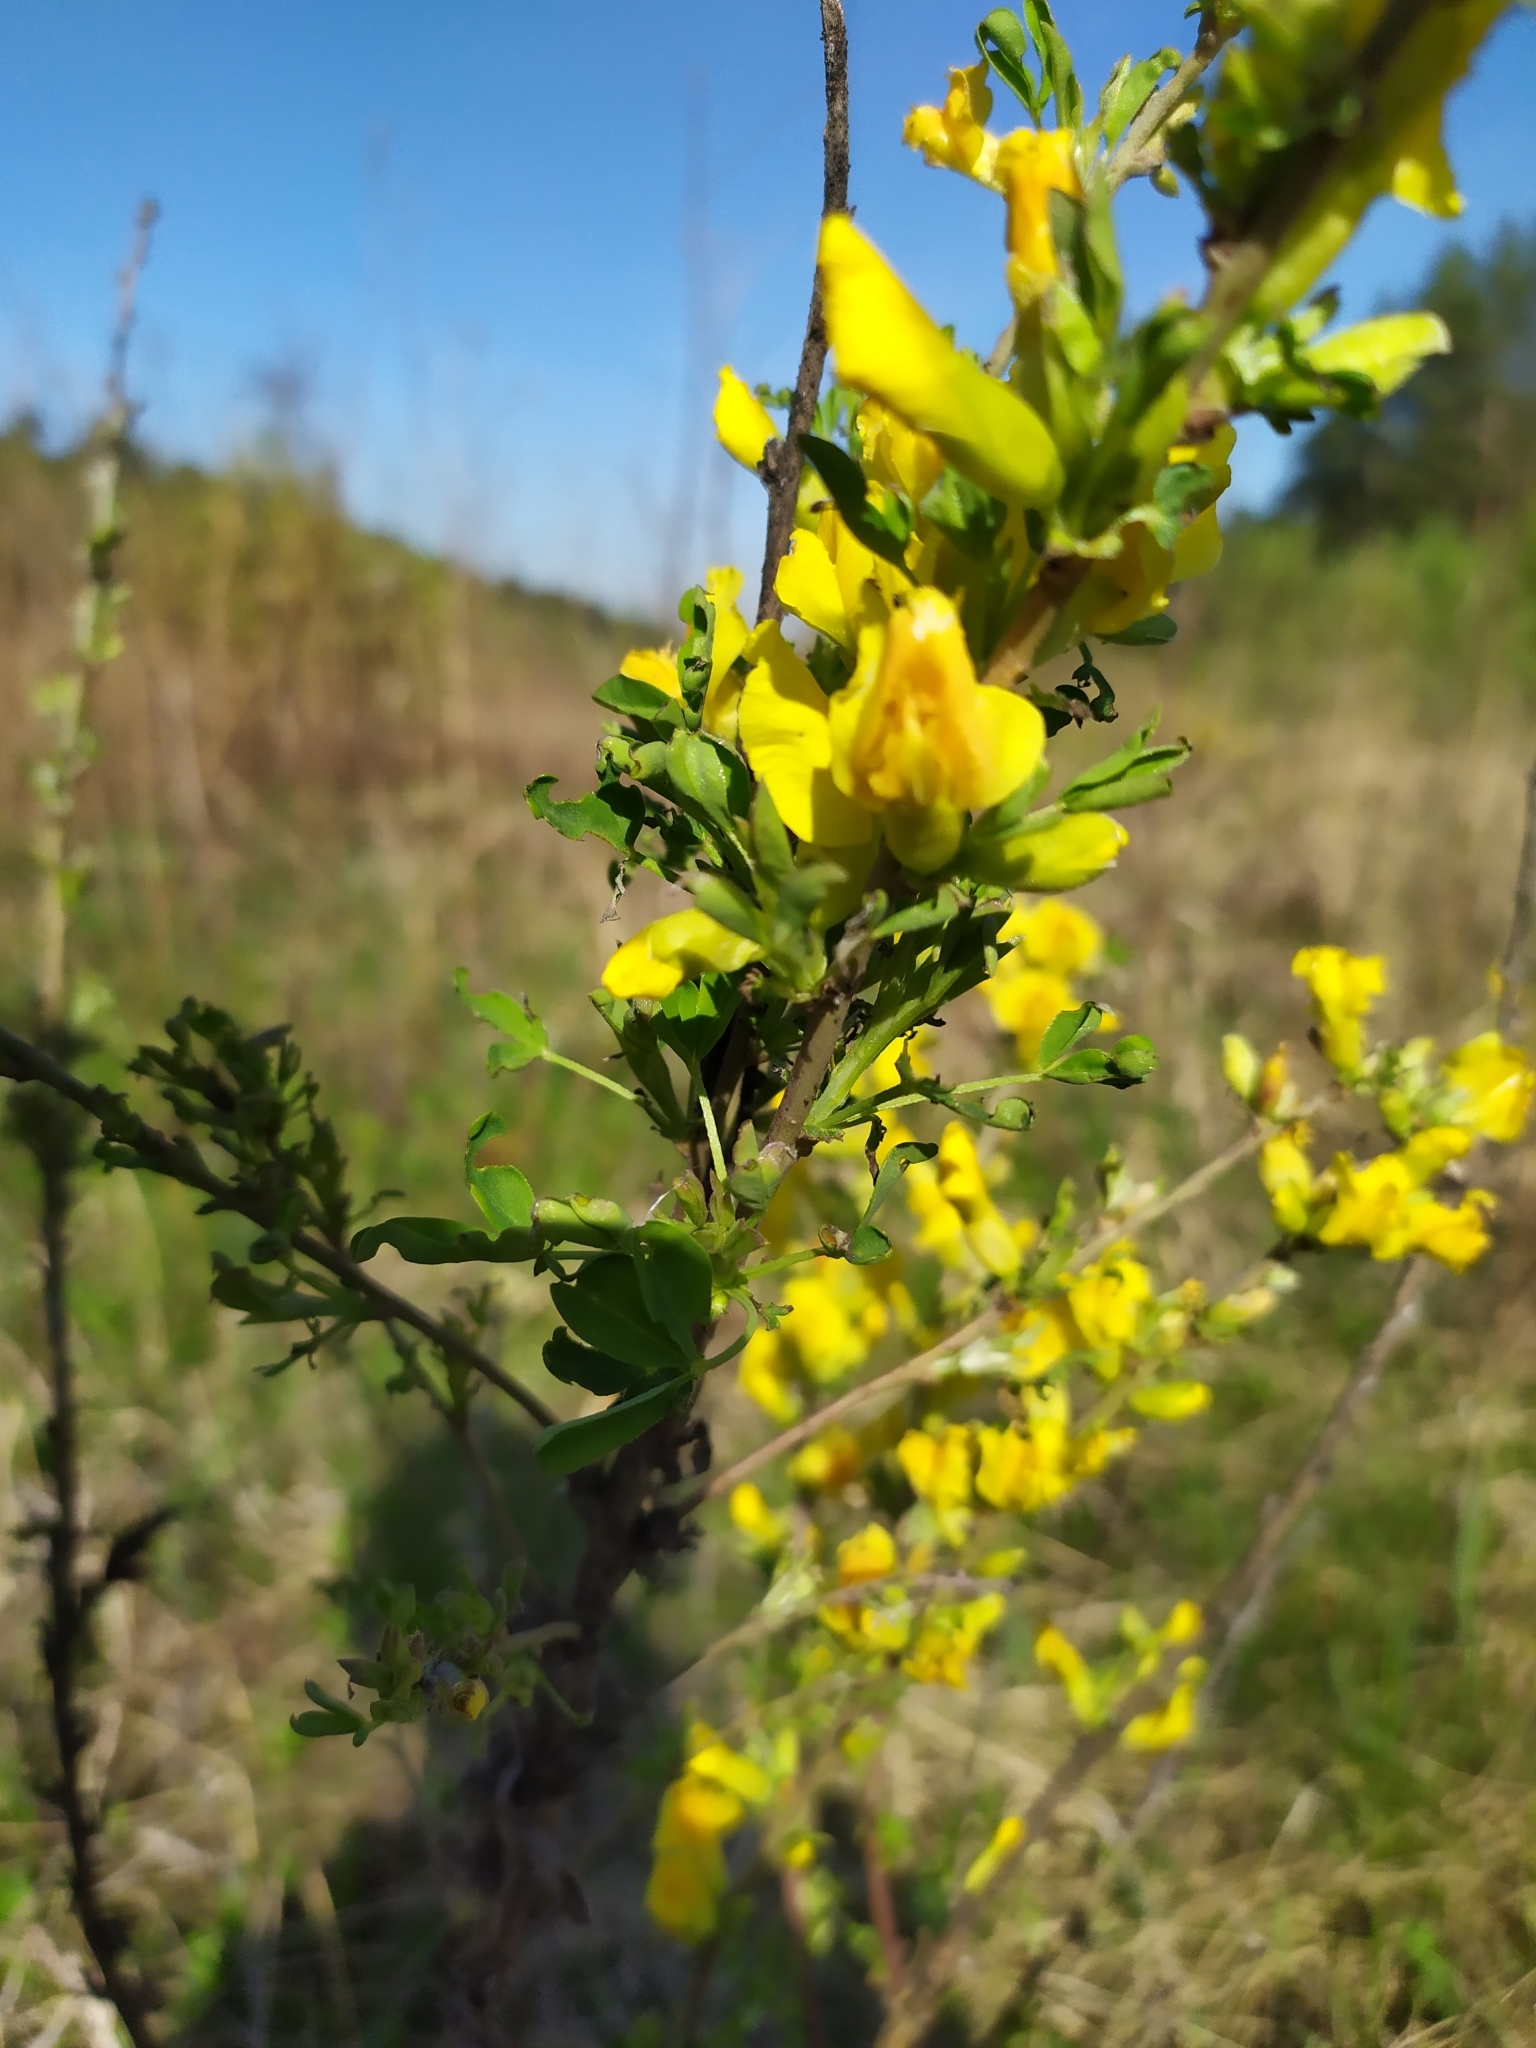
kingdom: Plantae
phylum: Tracheophyta
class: Magnoliopsida
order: Fabales
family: Fabaceae
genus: Chamaecytisus
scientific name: Chamaecytisus ruthenicus
